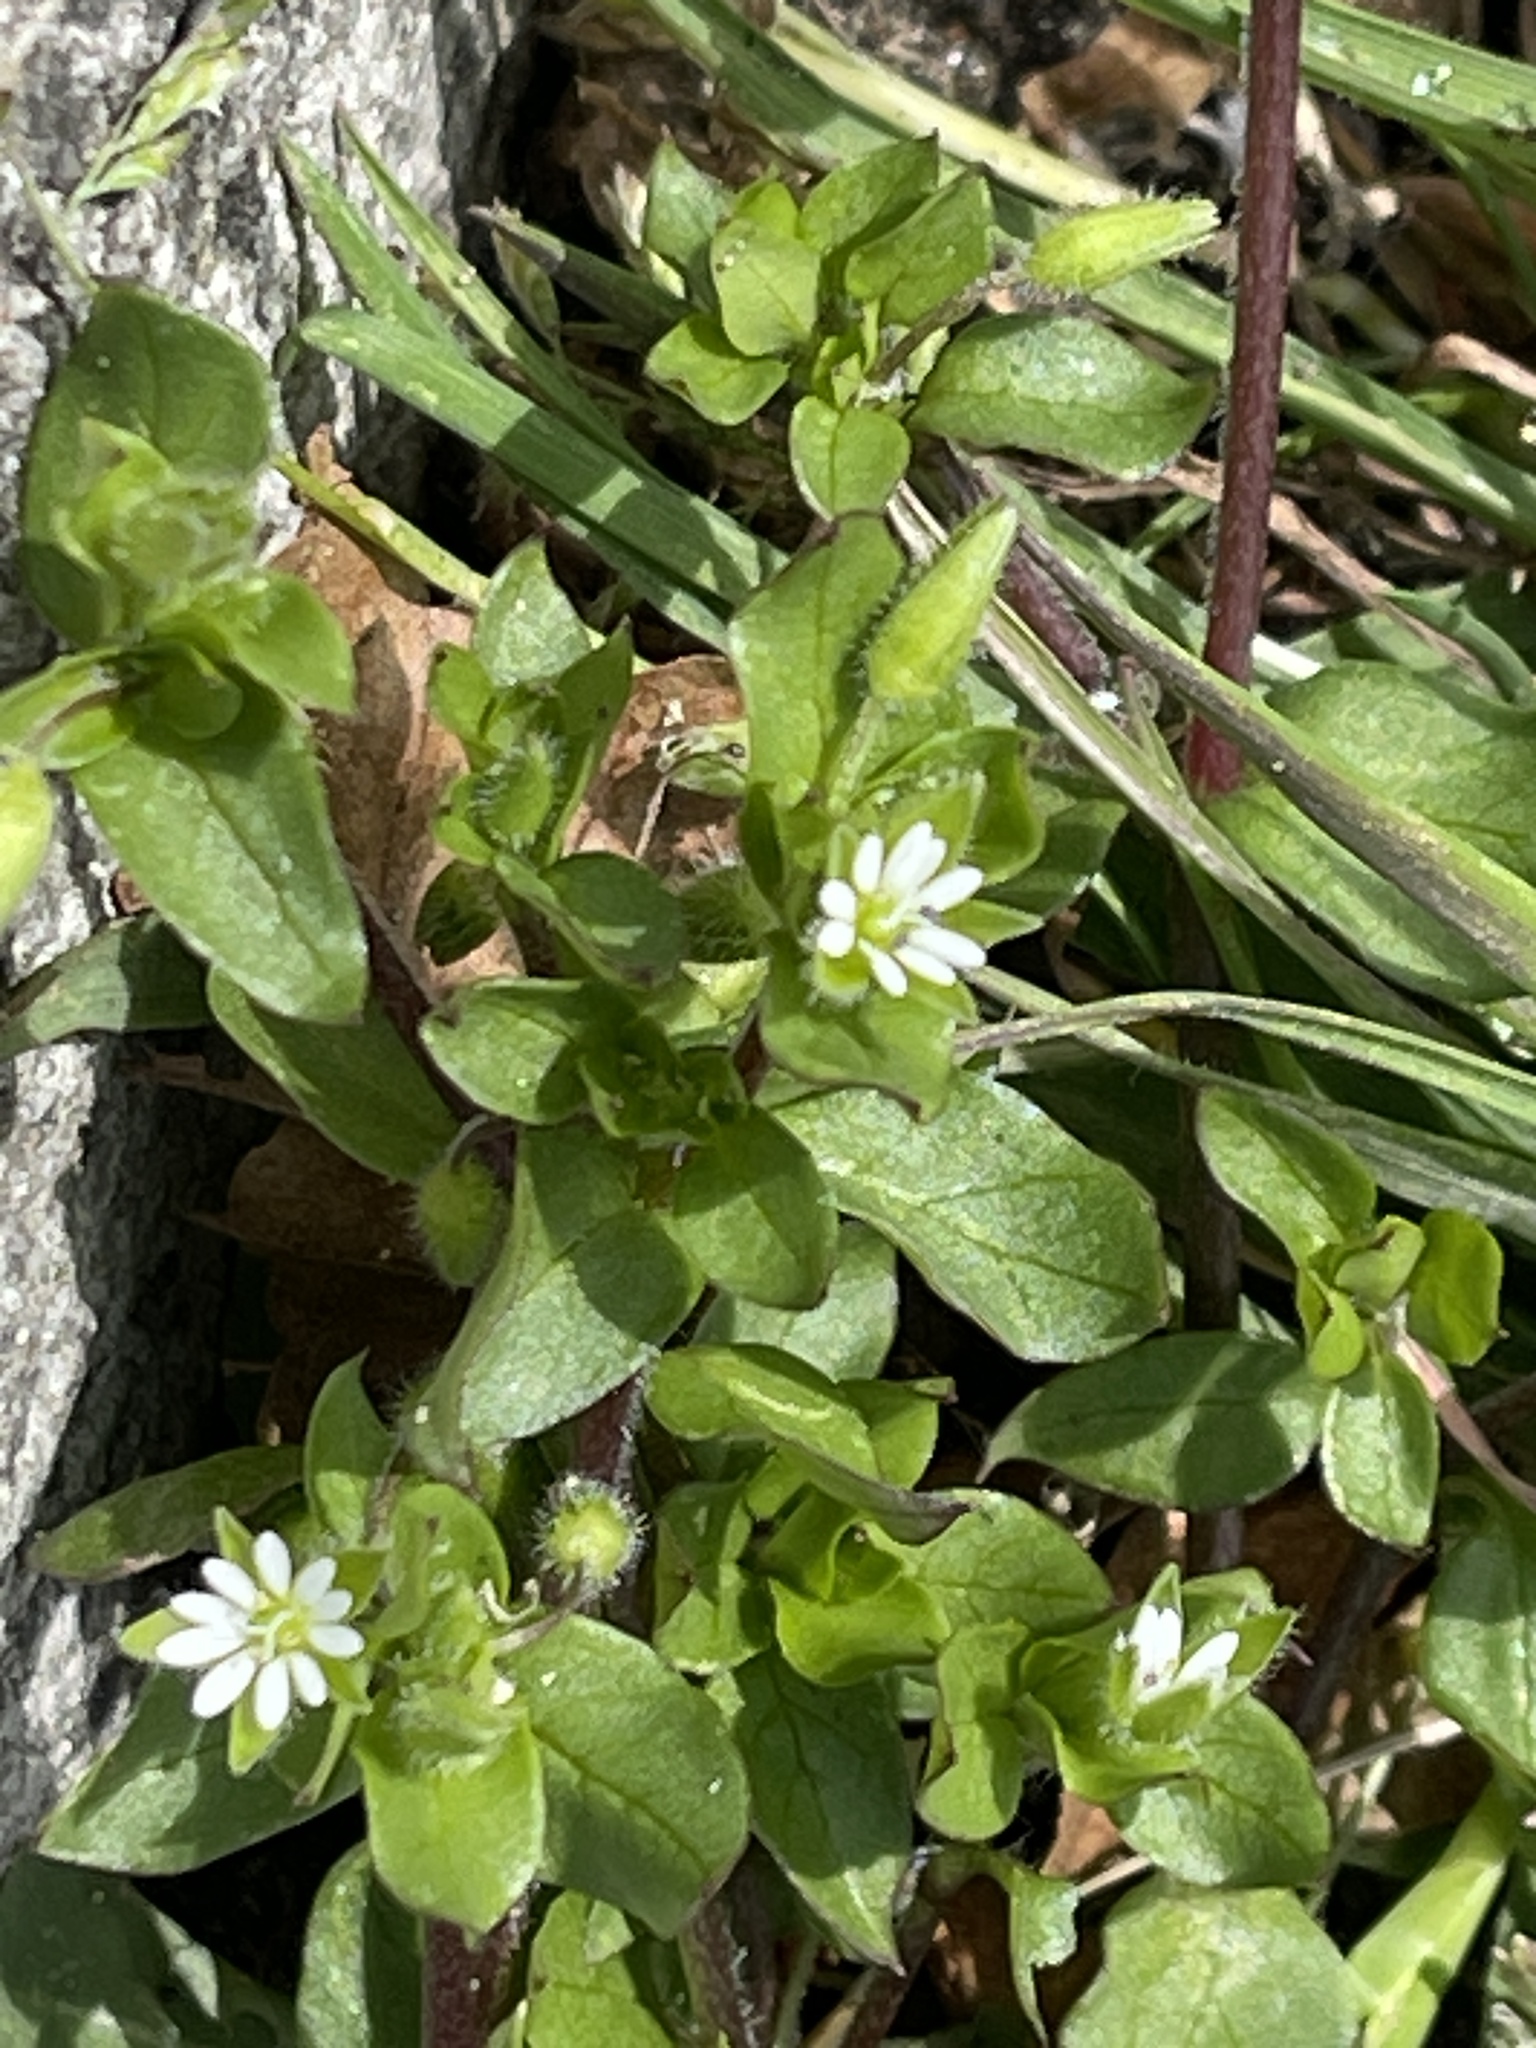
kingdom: Plantae
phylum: Tracheophyta
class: Magnoliopsida
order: Caryophyllales
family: Caryophyllaceae
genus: Stellaria
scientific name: Stellaria media
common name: Common chickweed
